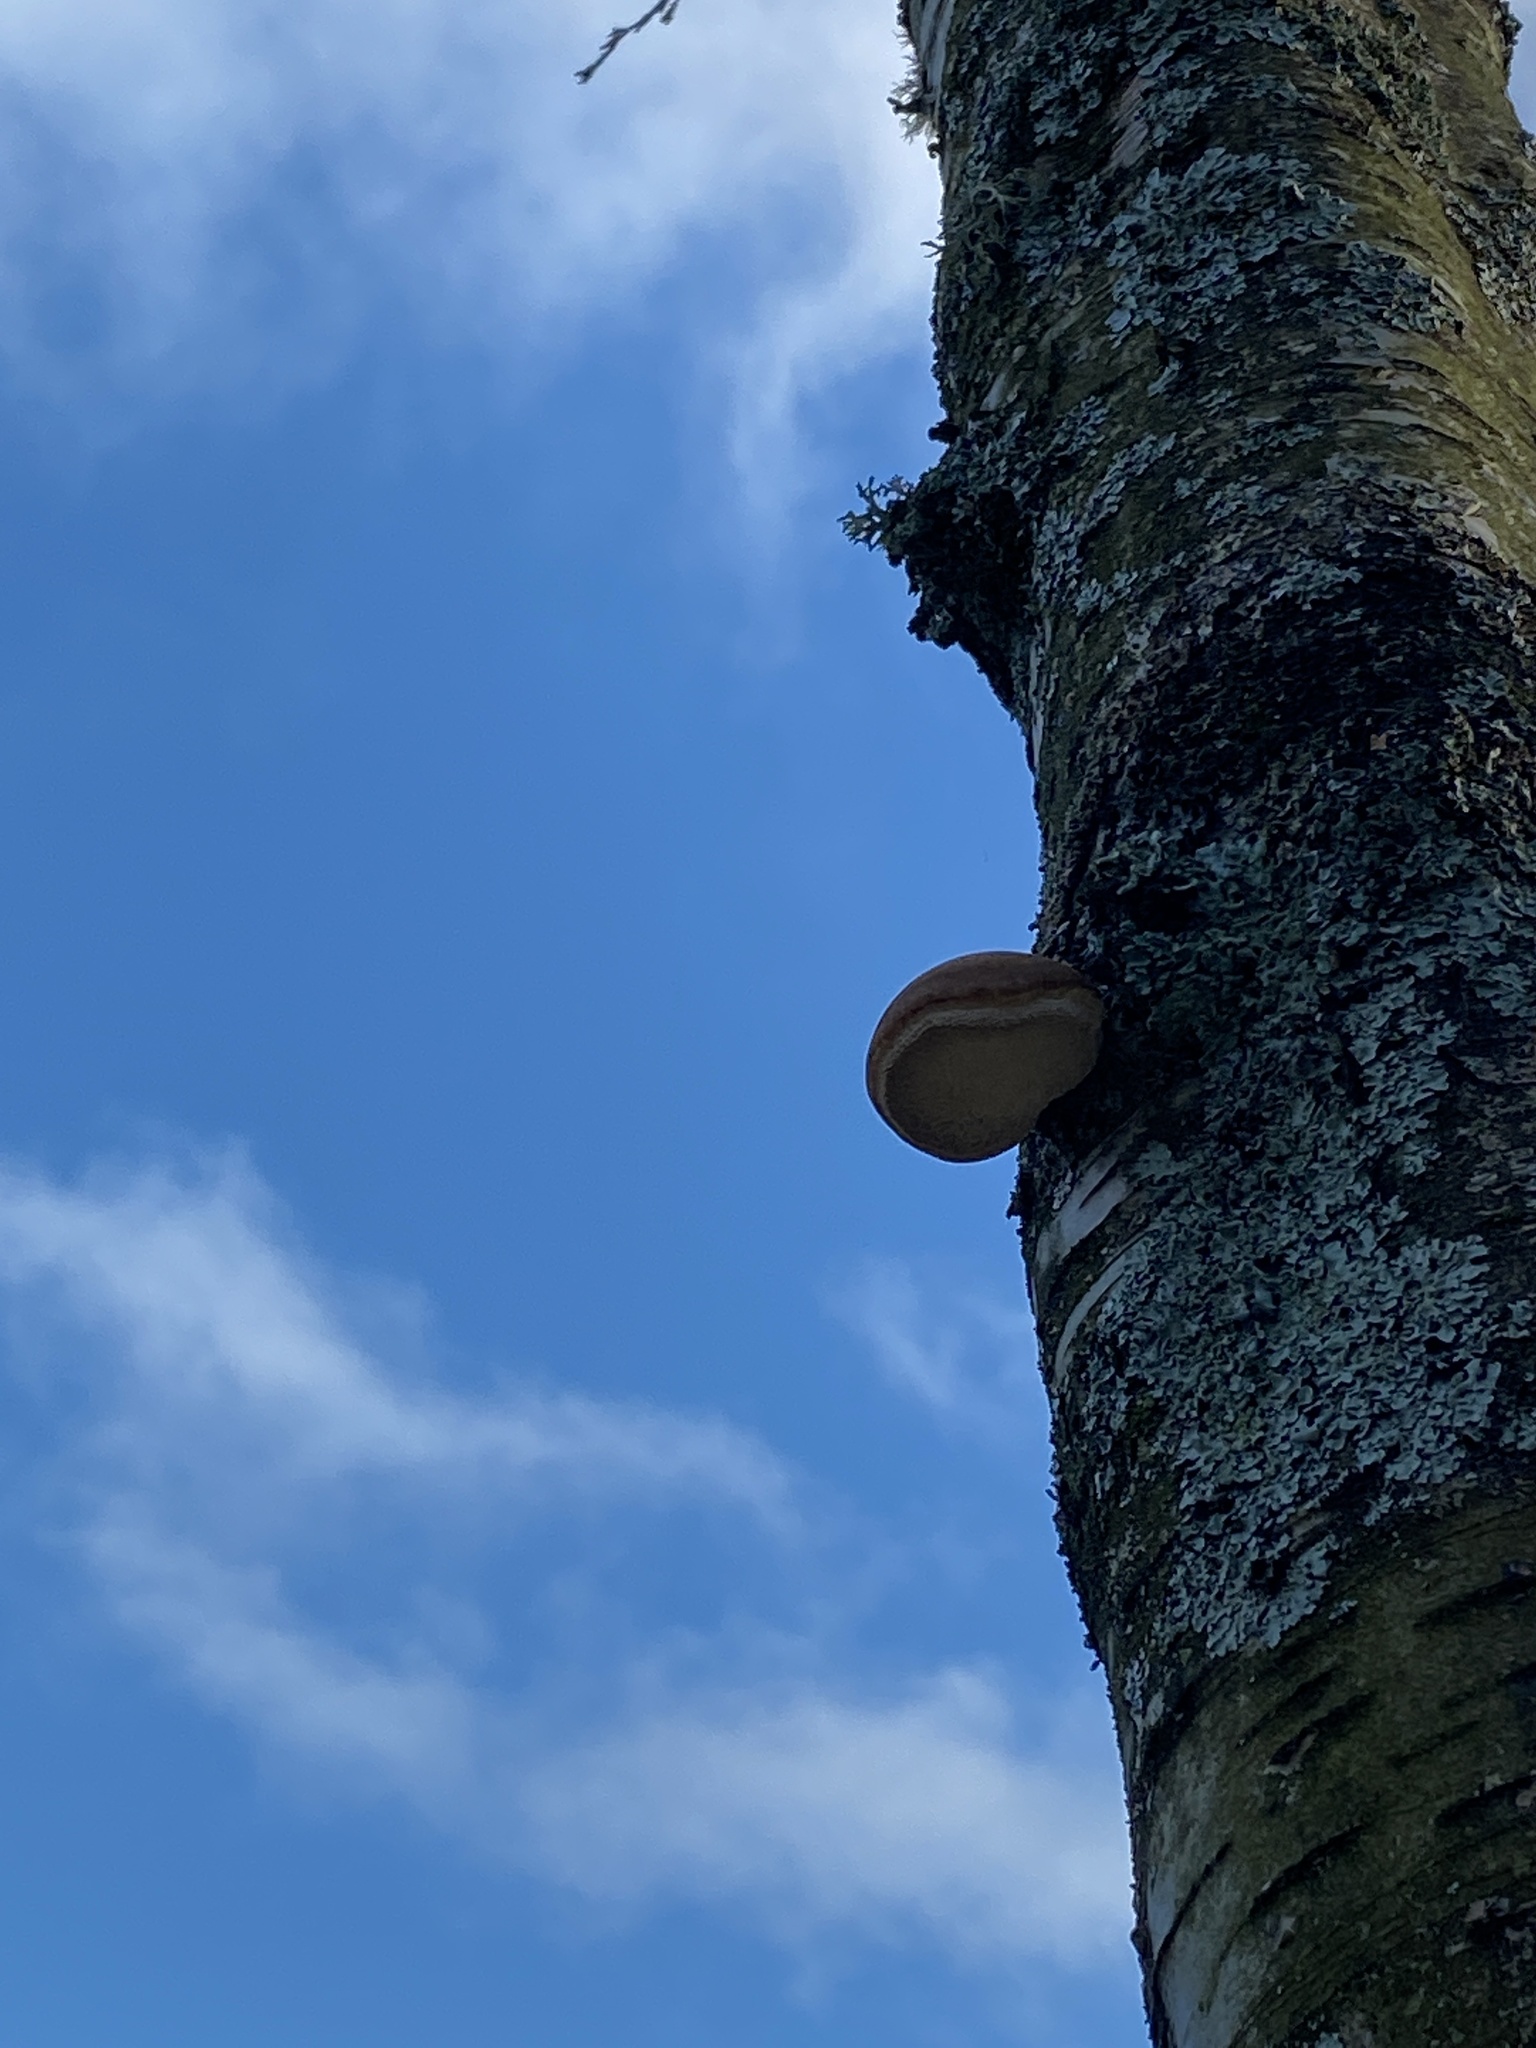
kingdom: Fungi
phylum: Basidiomycota
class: Agaricomycetes
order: Polyporales
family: Fomitopsidaceae
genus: Fomitopsis
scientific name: Fomitopsis betulina
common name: Birch polypore
